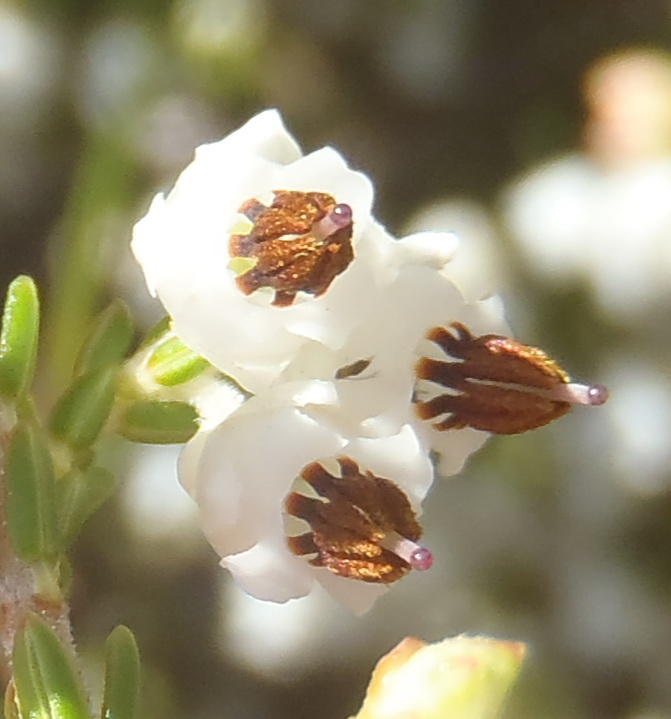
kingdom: Plantae
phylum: Tracheophyta
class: Magnoliopsida
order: Ericales
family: Ericaceae
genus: Erica
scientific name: Erica triceps
